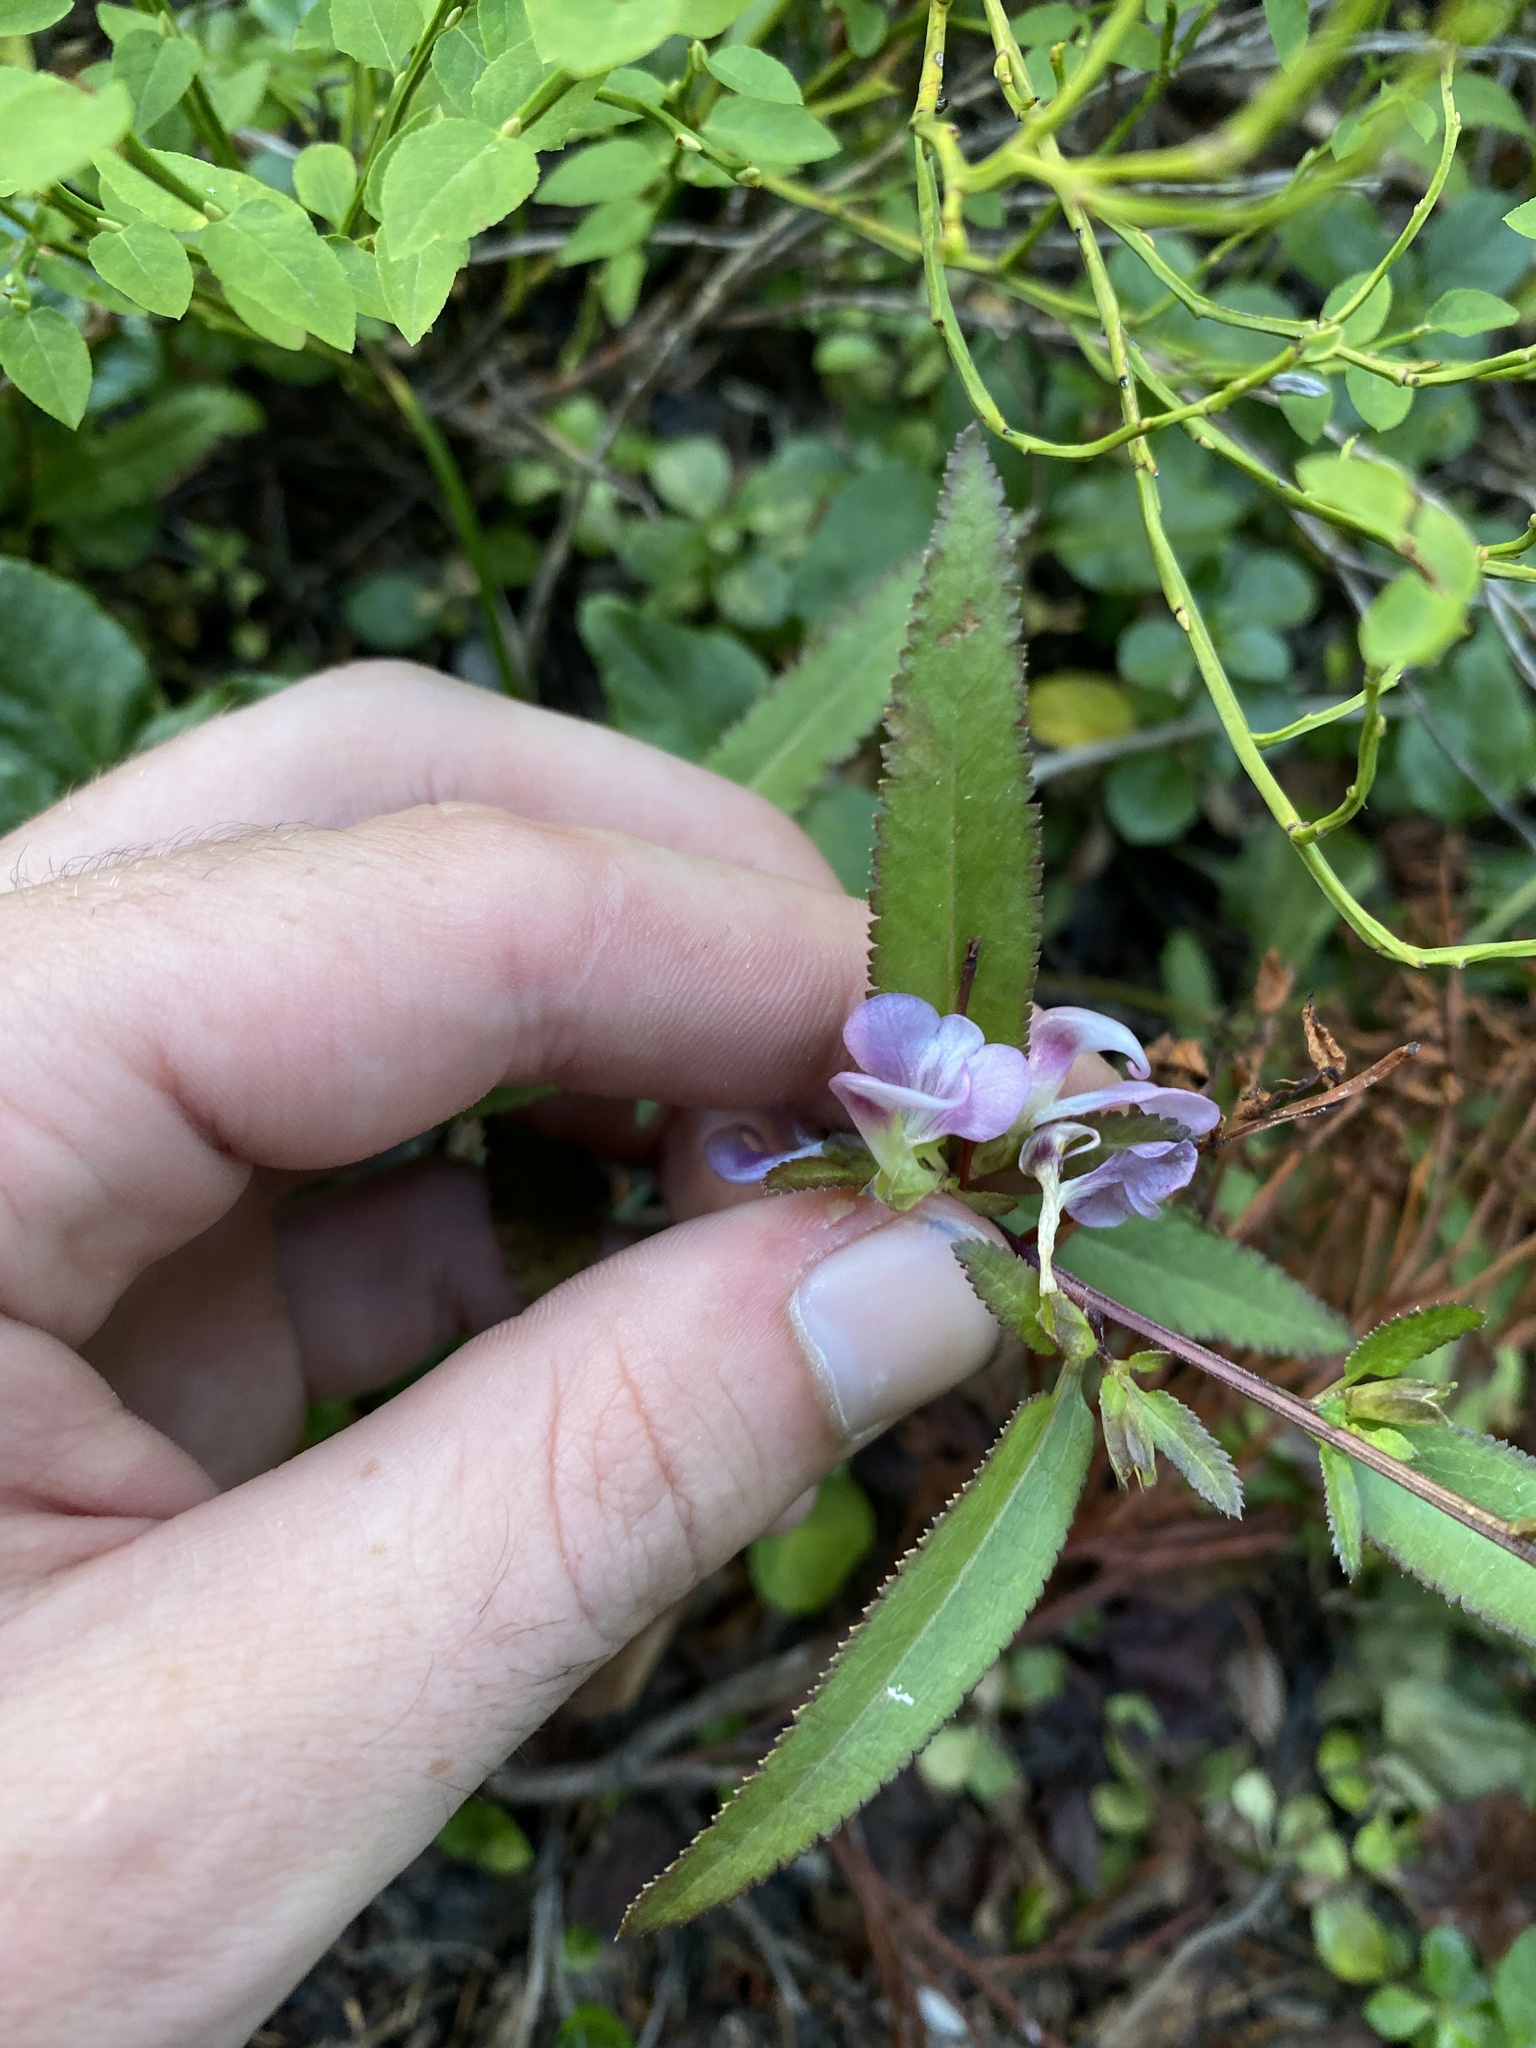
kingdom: Plantae
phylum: Tracheophyta
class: Magnoliopsida
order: Lamiales
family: Orobanchaceae
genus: Pedicularis
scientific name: Pedicularis racemosa
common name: Leafy lousewort
